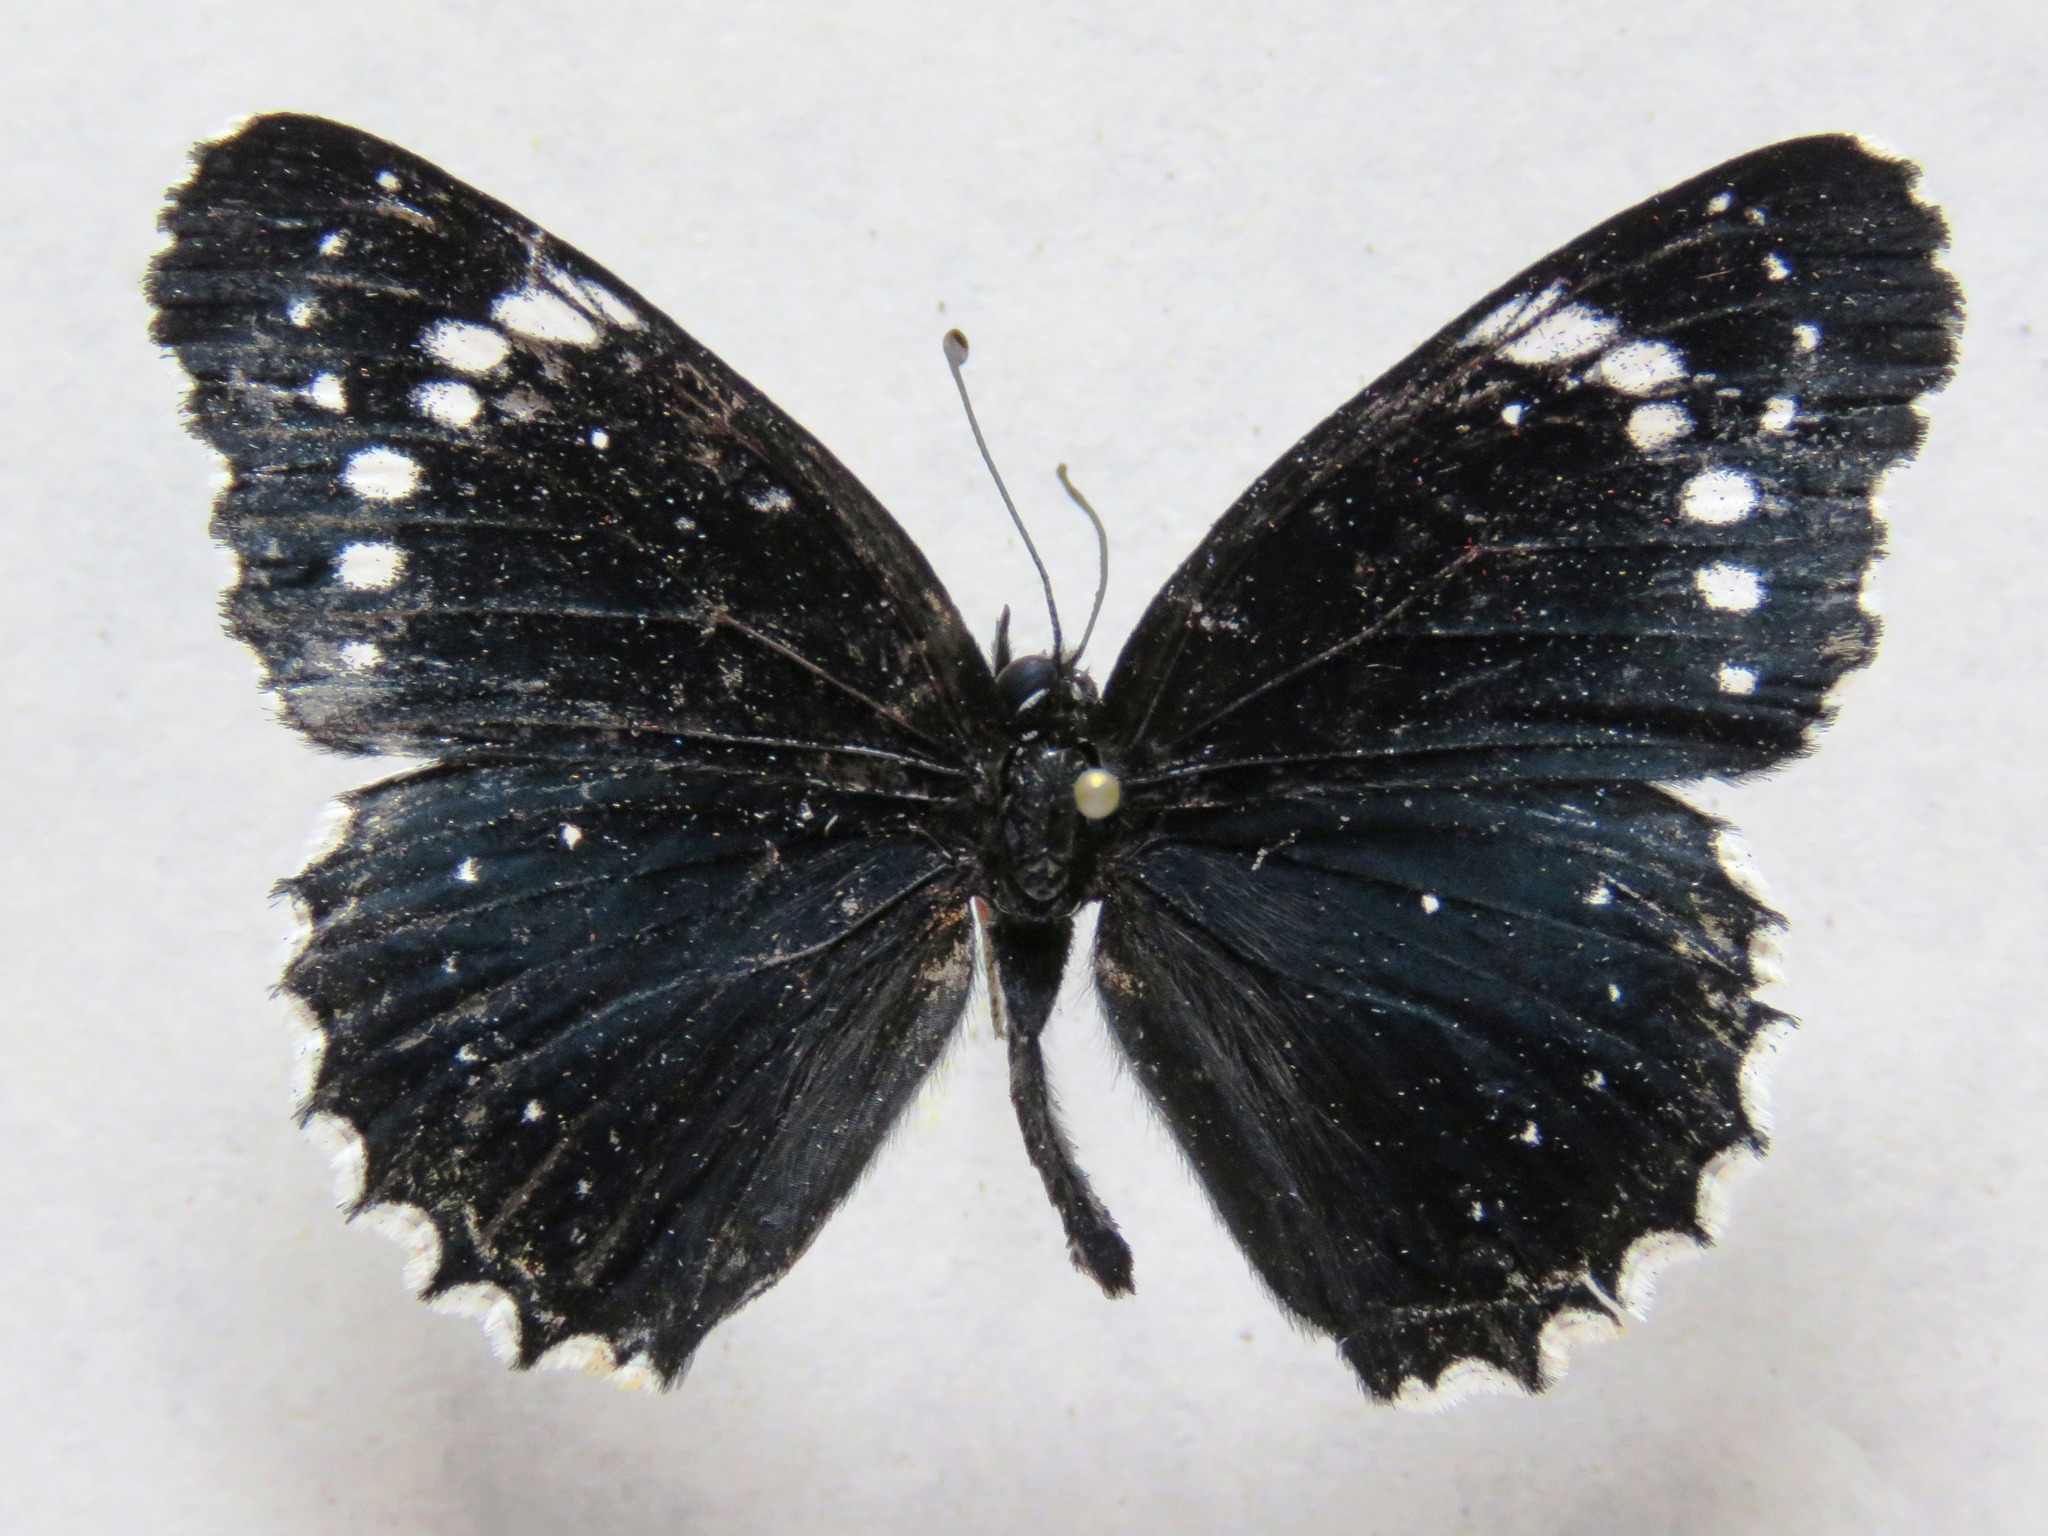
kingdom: Animalia
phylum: Arthropoda
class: Insecta
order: Lepidoptera
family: Nymphalidae
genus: Chlosyne
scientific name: Chlosyne hippodrome
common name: Simple patch
